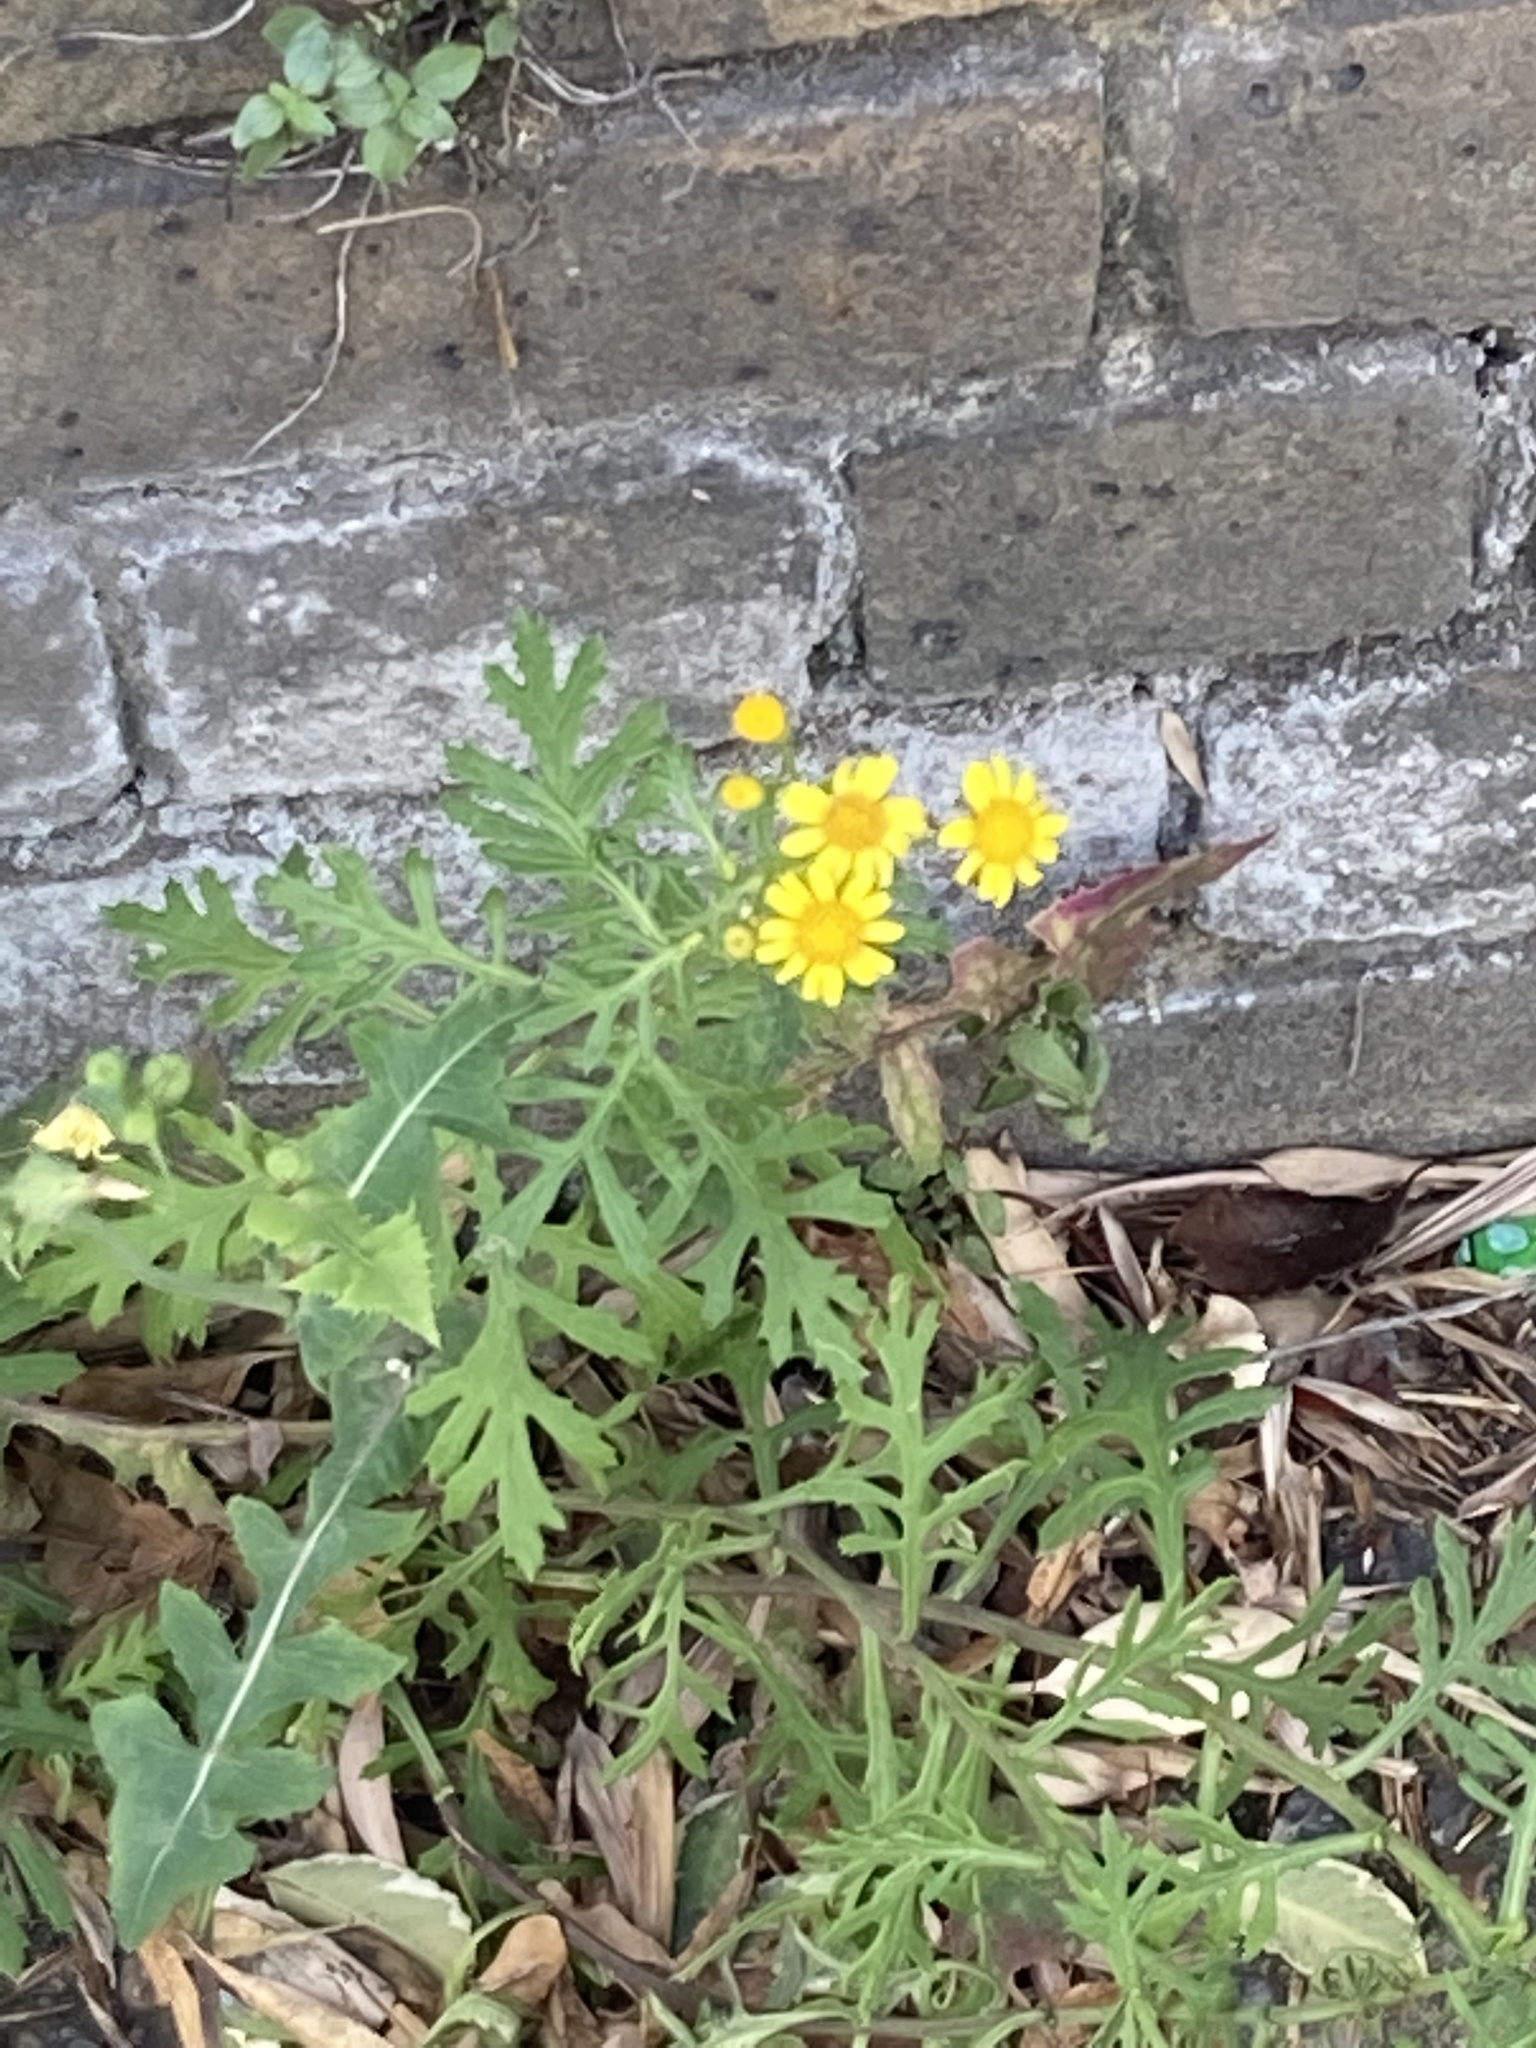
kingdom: Plantae
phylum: Tracheophyta
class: Magnoliopsida
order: Asterales
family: Asteraceae
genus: Senecio
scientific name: Senecio squalidus
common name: Oxford ragwort
